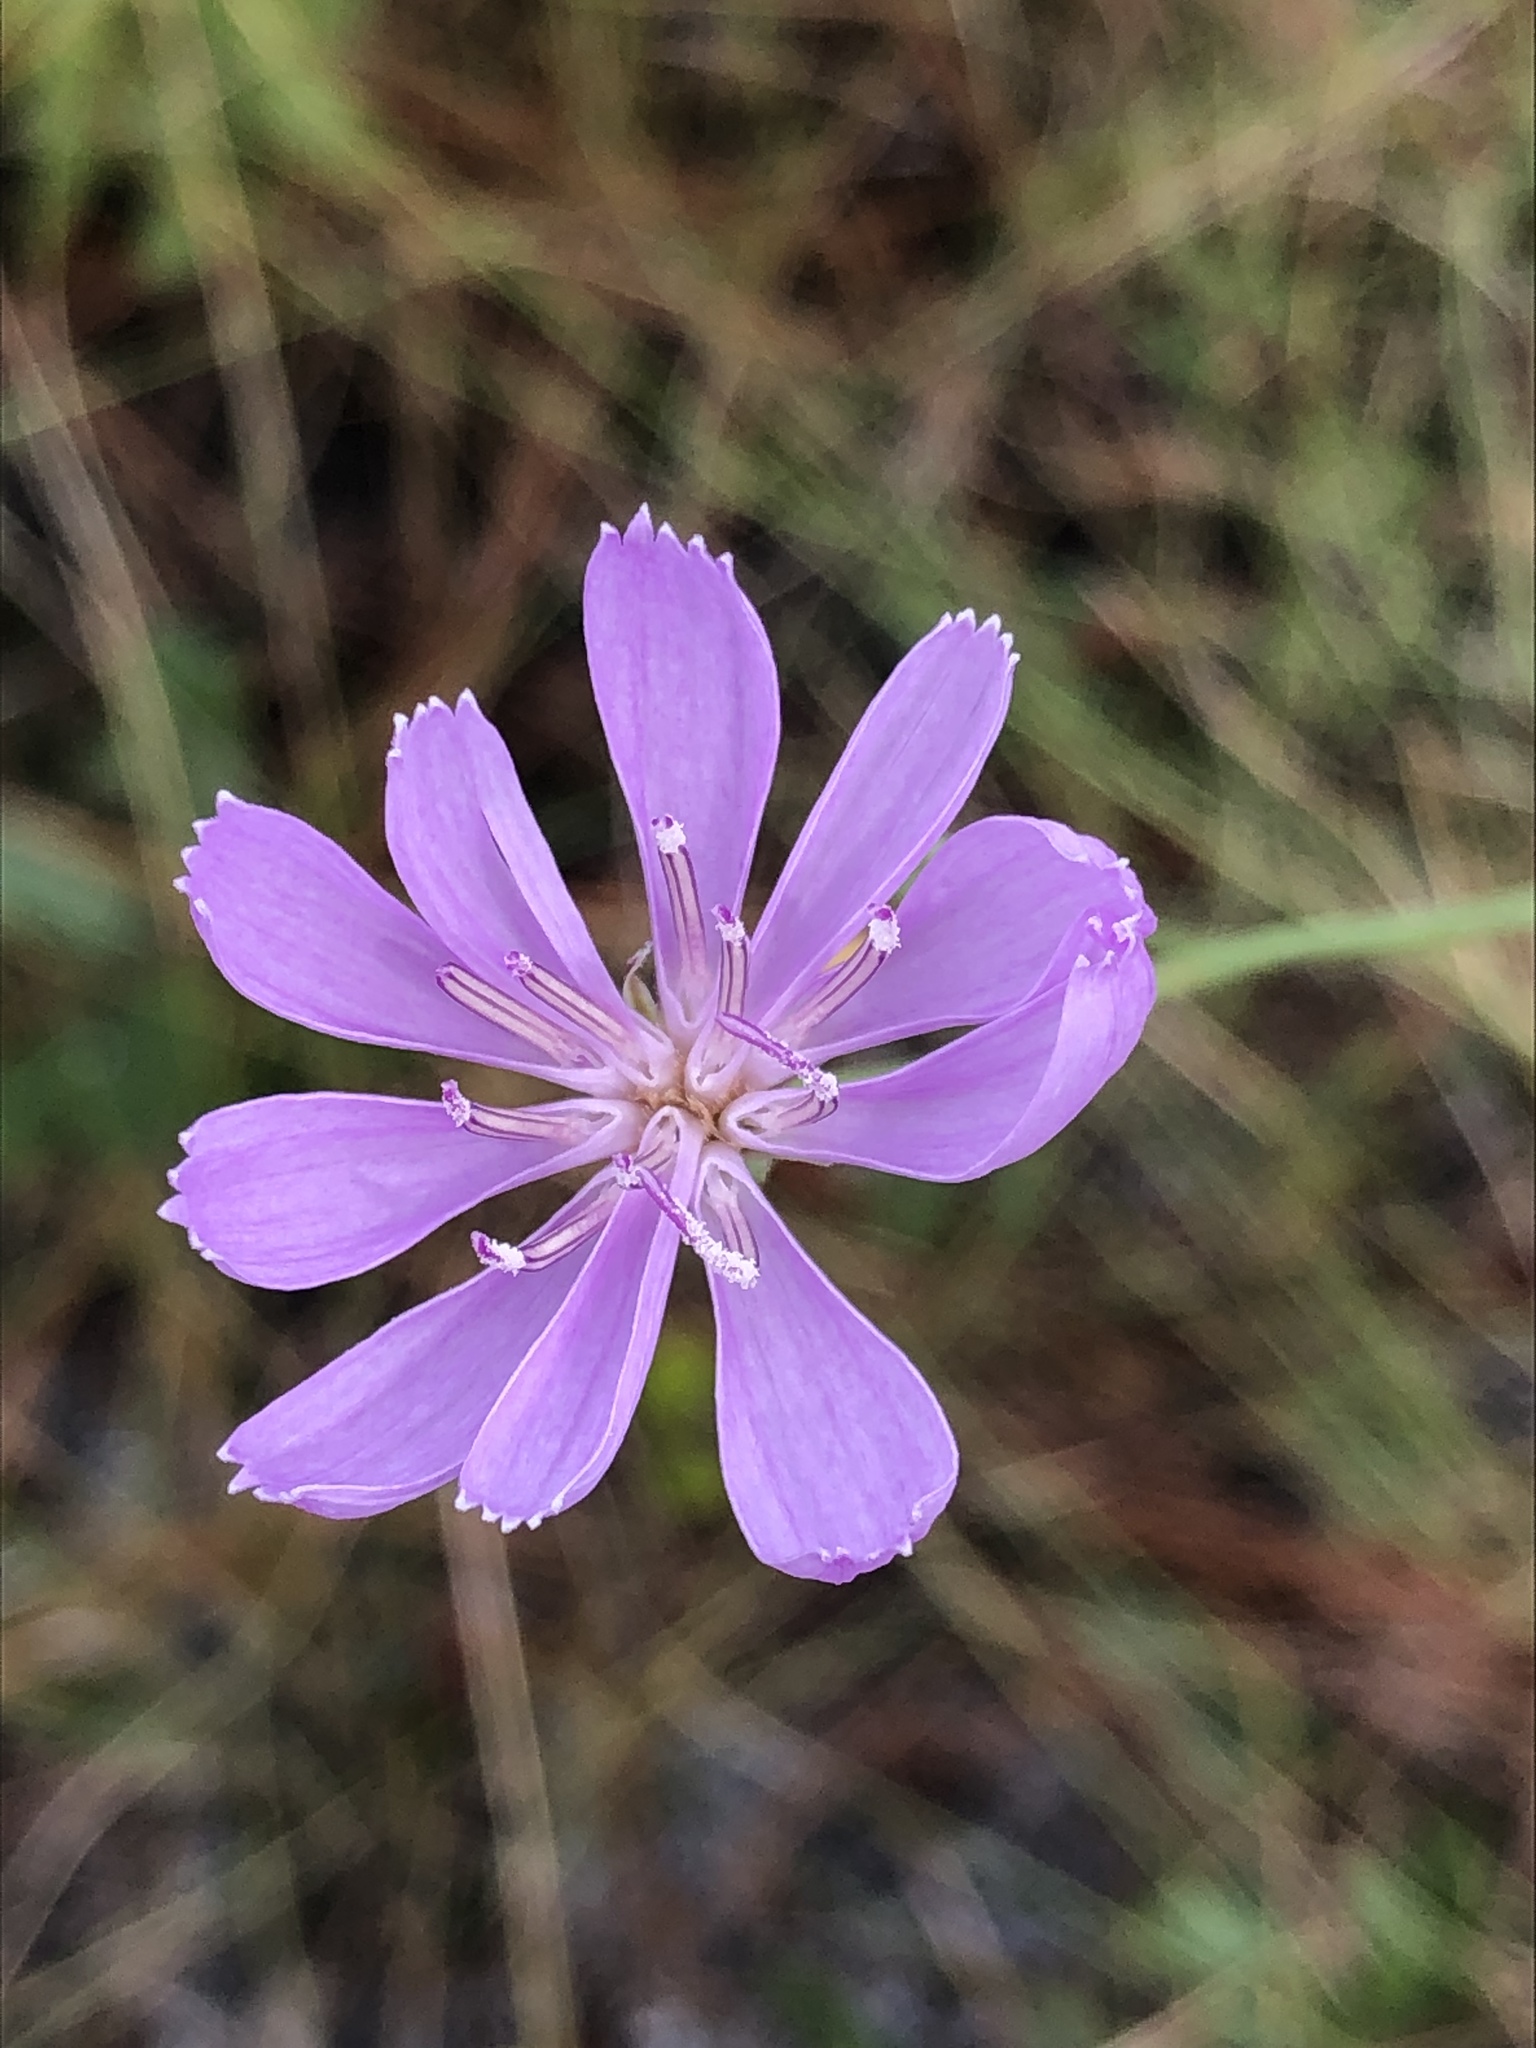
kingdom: Plantae
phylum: Tracheophyta
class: Magnoliopsida
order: Asterales
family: Asteraceae
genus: Lygodesmia
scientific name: Lygodesmia aphylla
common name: Rose-rush
